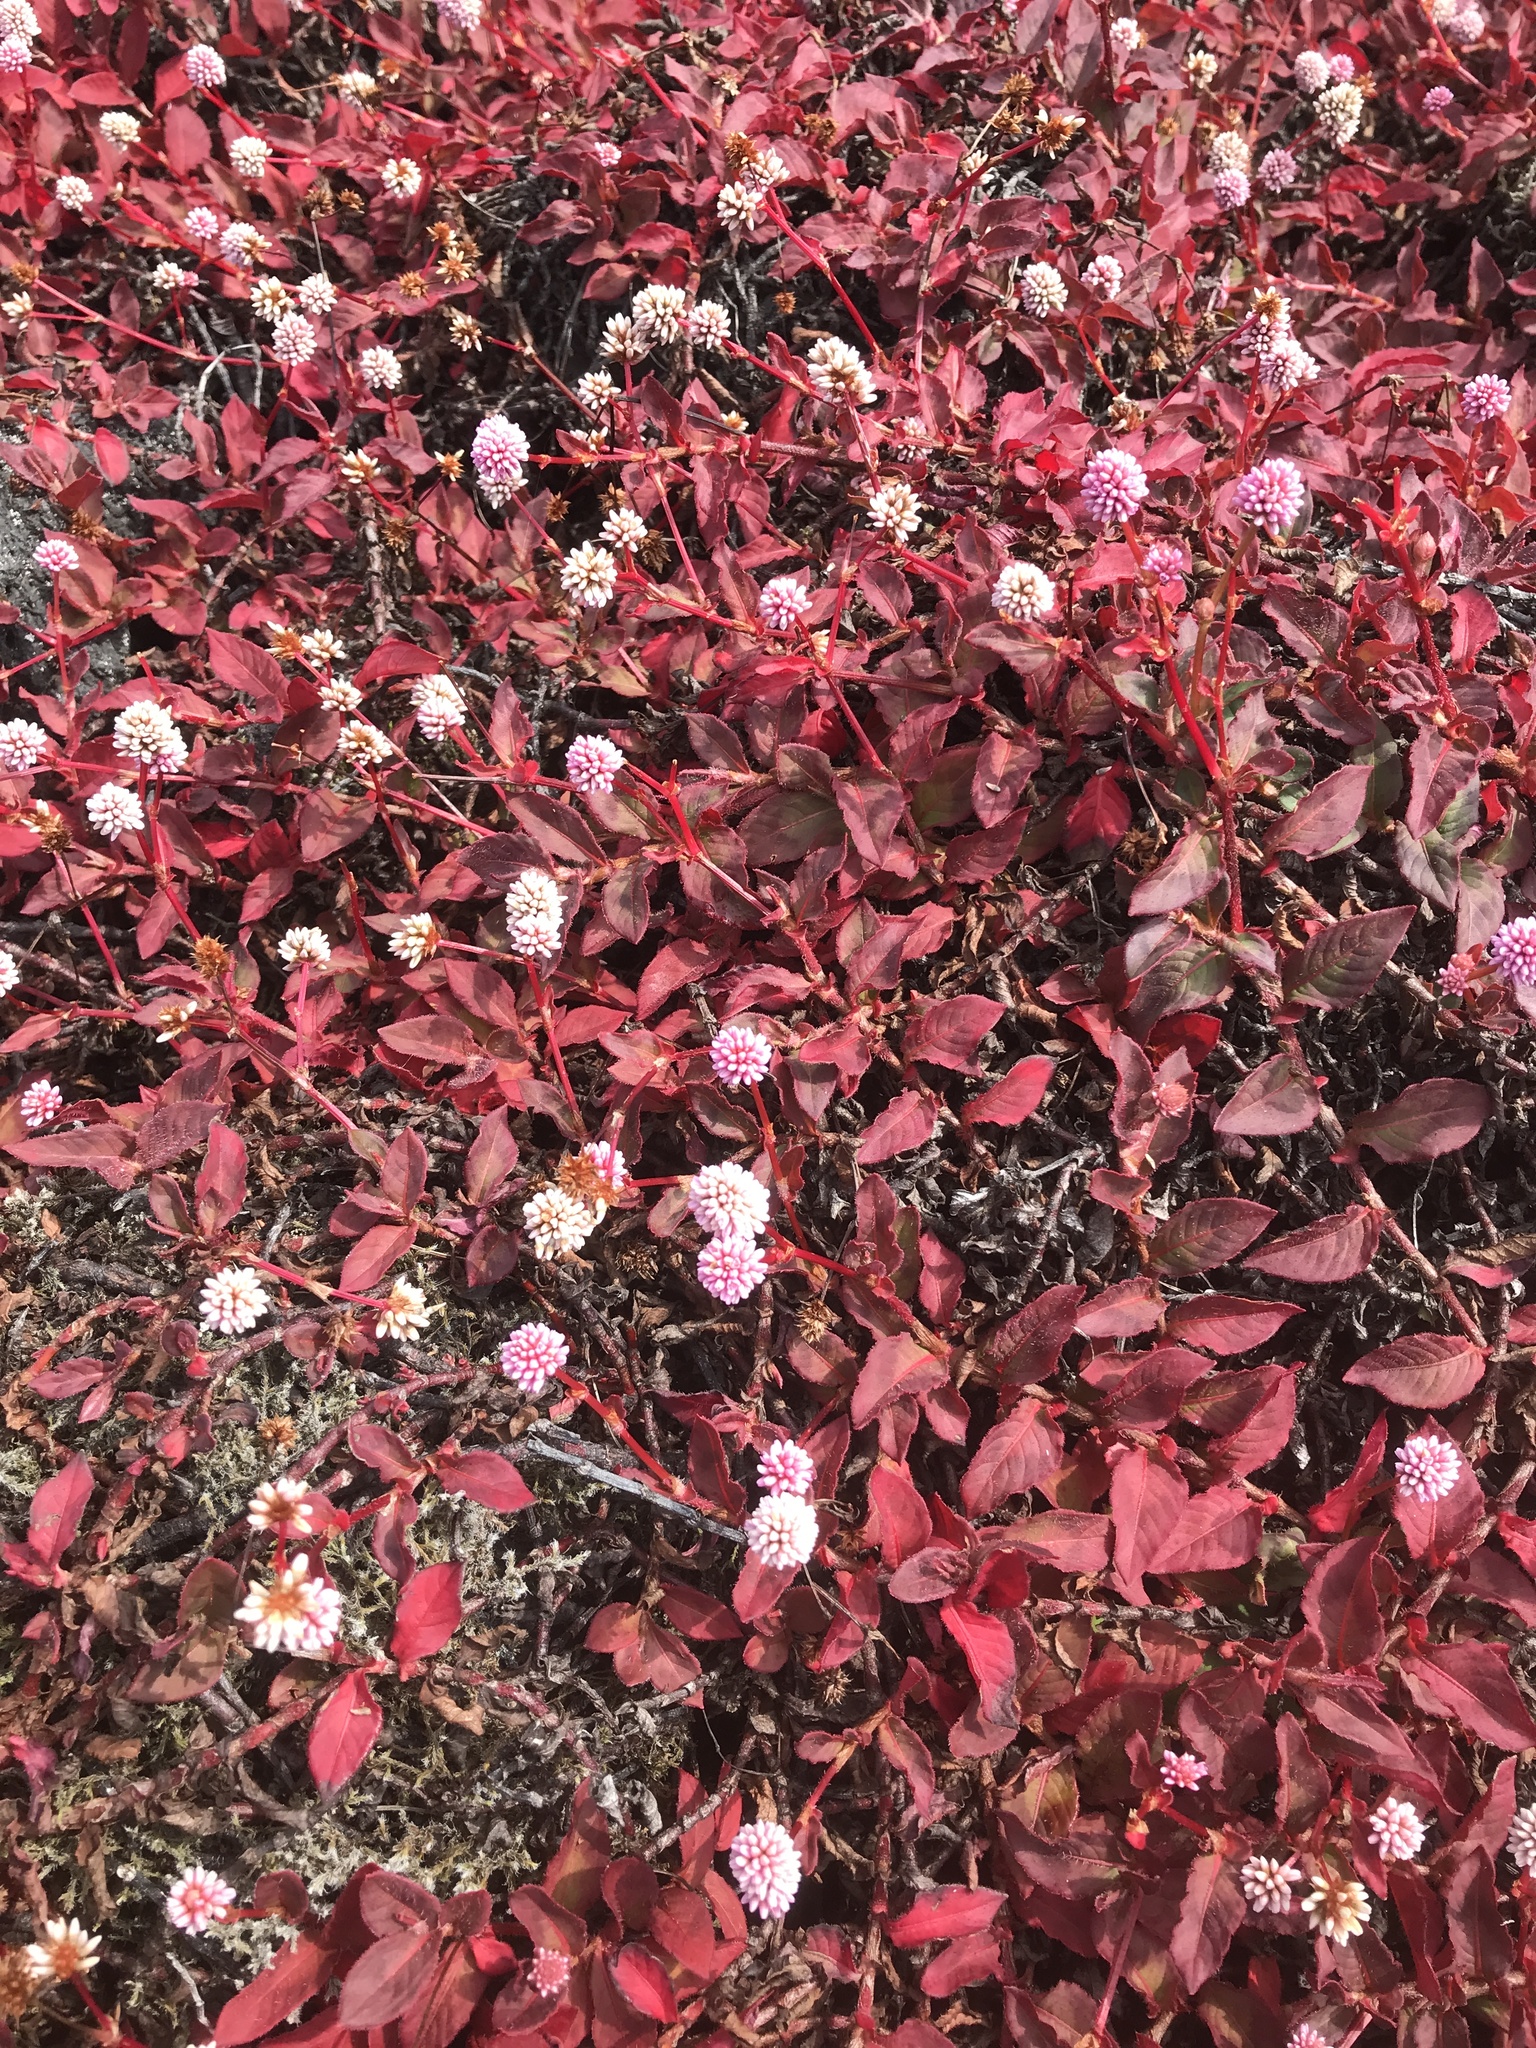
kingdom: Plantae
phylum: Tracheophyta
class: Magnoliopsida
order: Caryophyllales
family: Polygonaceae
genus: Persicaria
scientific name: Persicaria capitata
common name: Pinkhead smartweed
